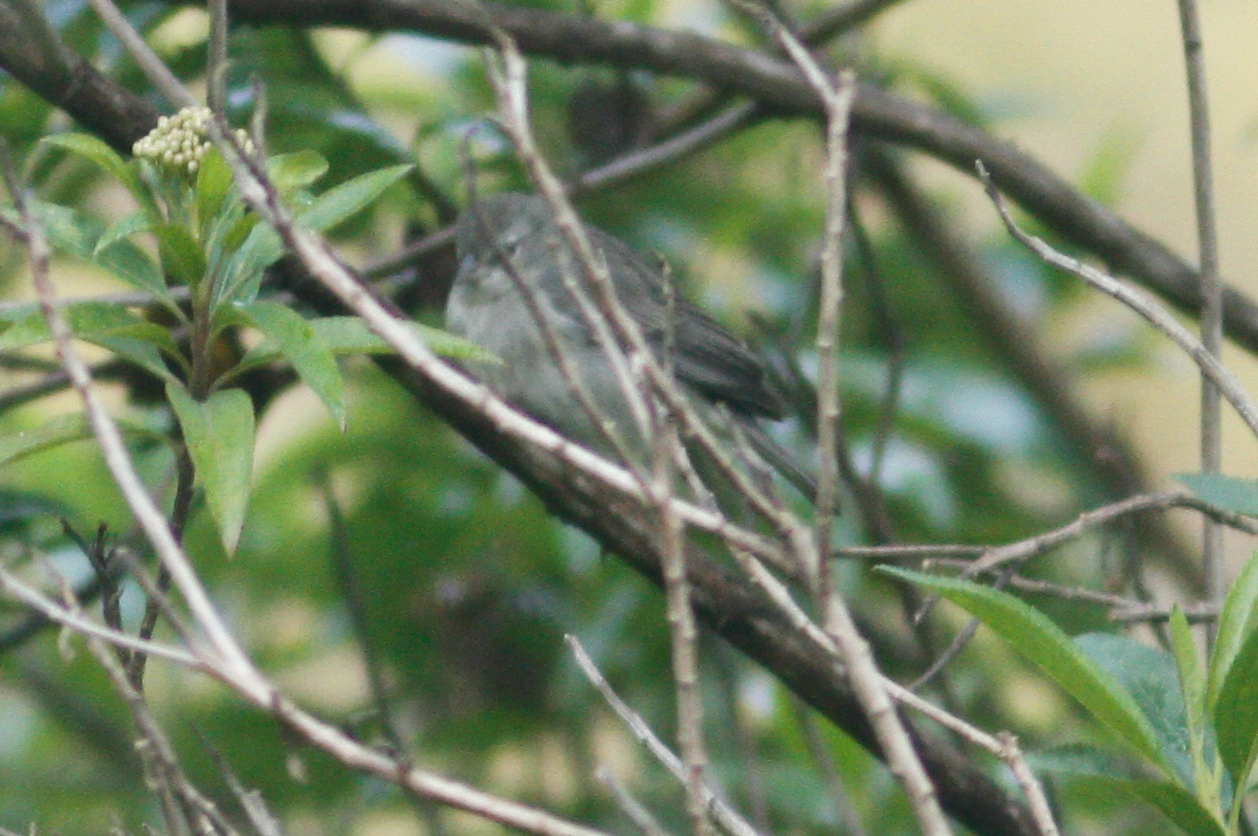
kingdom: Animalia
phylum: Chordata
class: Aves
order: Passeriformes
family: Thraupidae
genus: Geospizopsis
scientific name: Geospizopsis plebejus
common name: Ash-breasted sierra-finch
